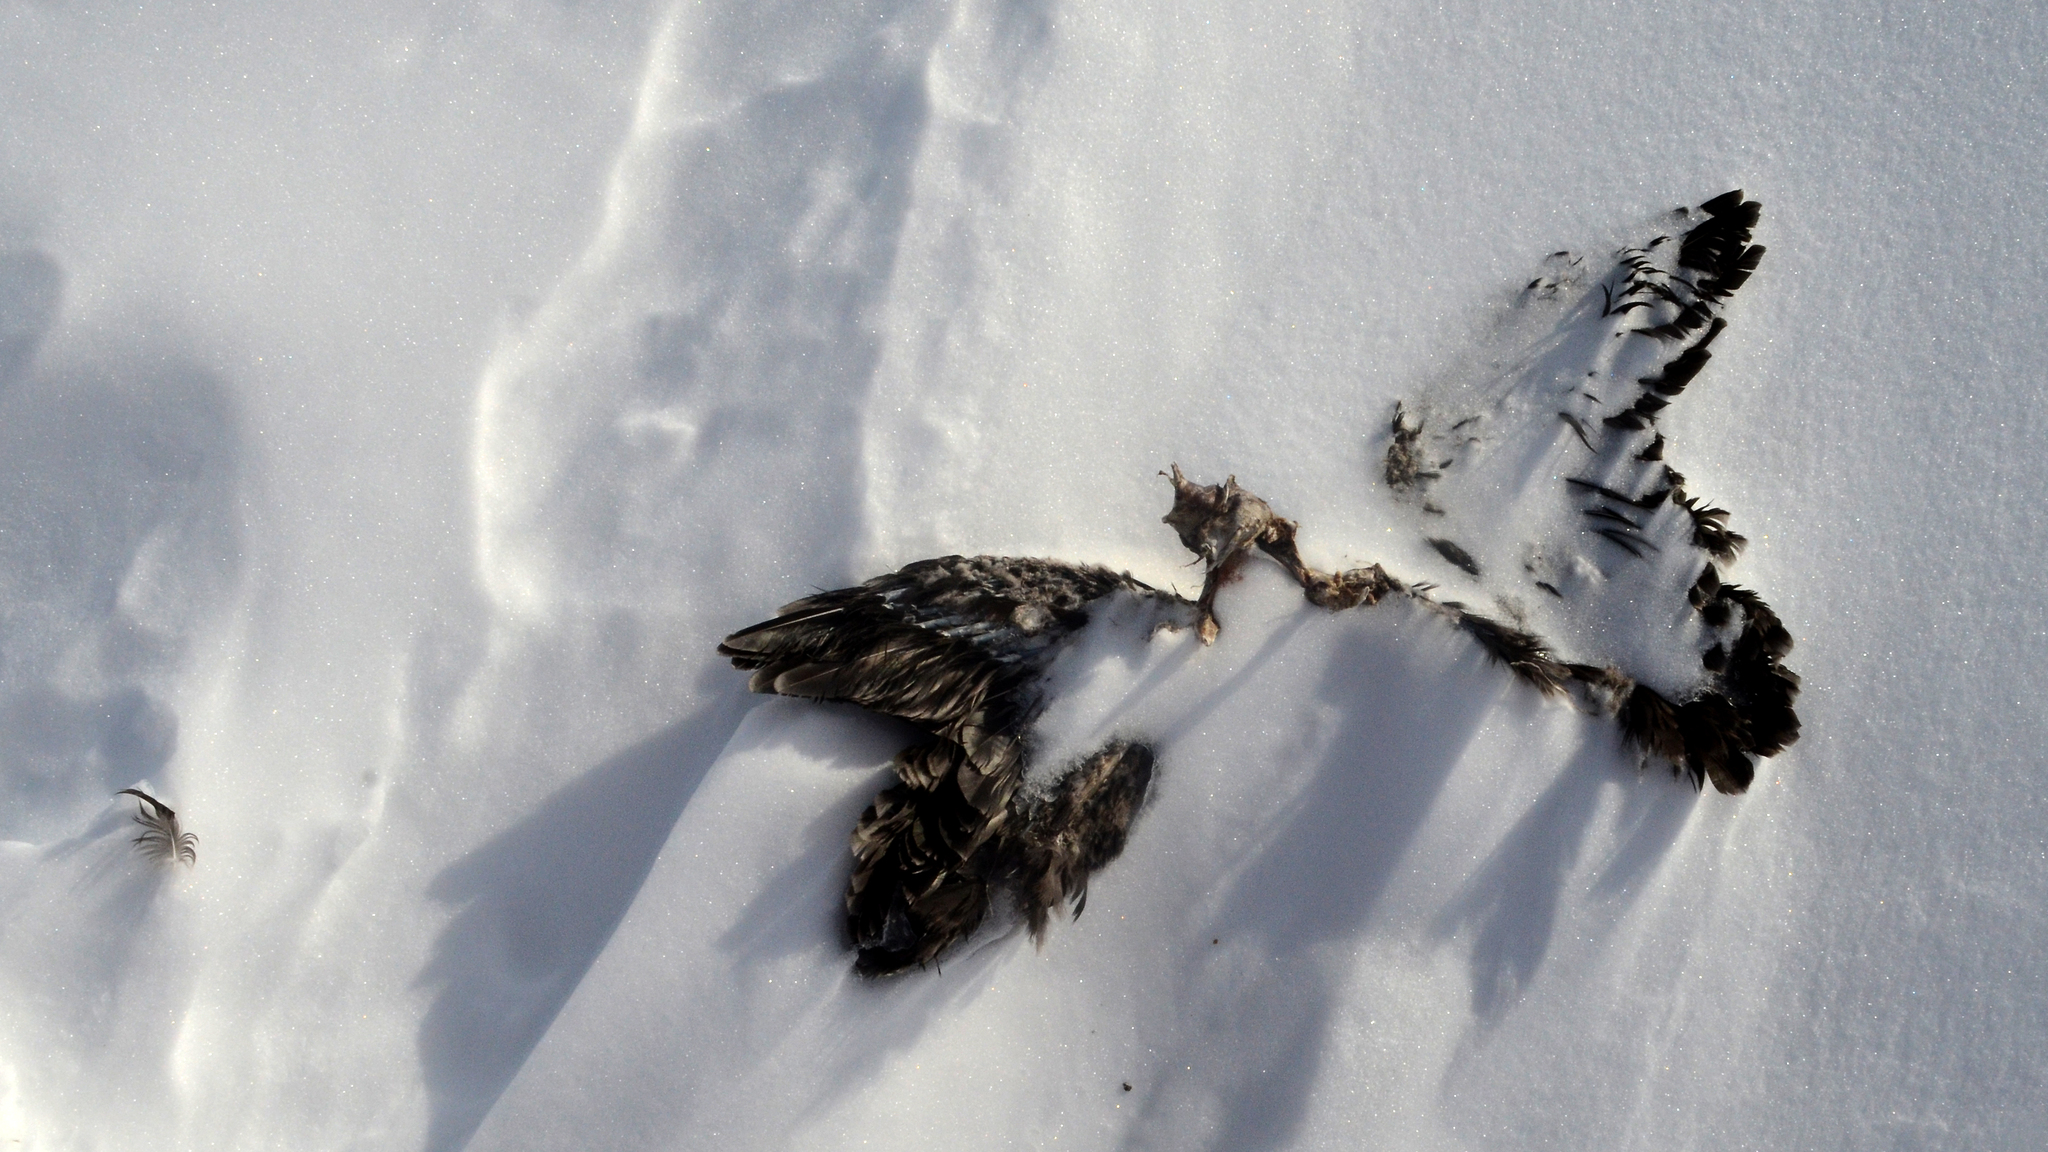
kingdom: Animalia
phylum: Chordata
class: Aves
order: Charadriiformes
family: Stercorariidae
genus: Stercorarius
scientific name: Stercorarius maccormicki
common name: South polar skua
